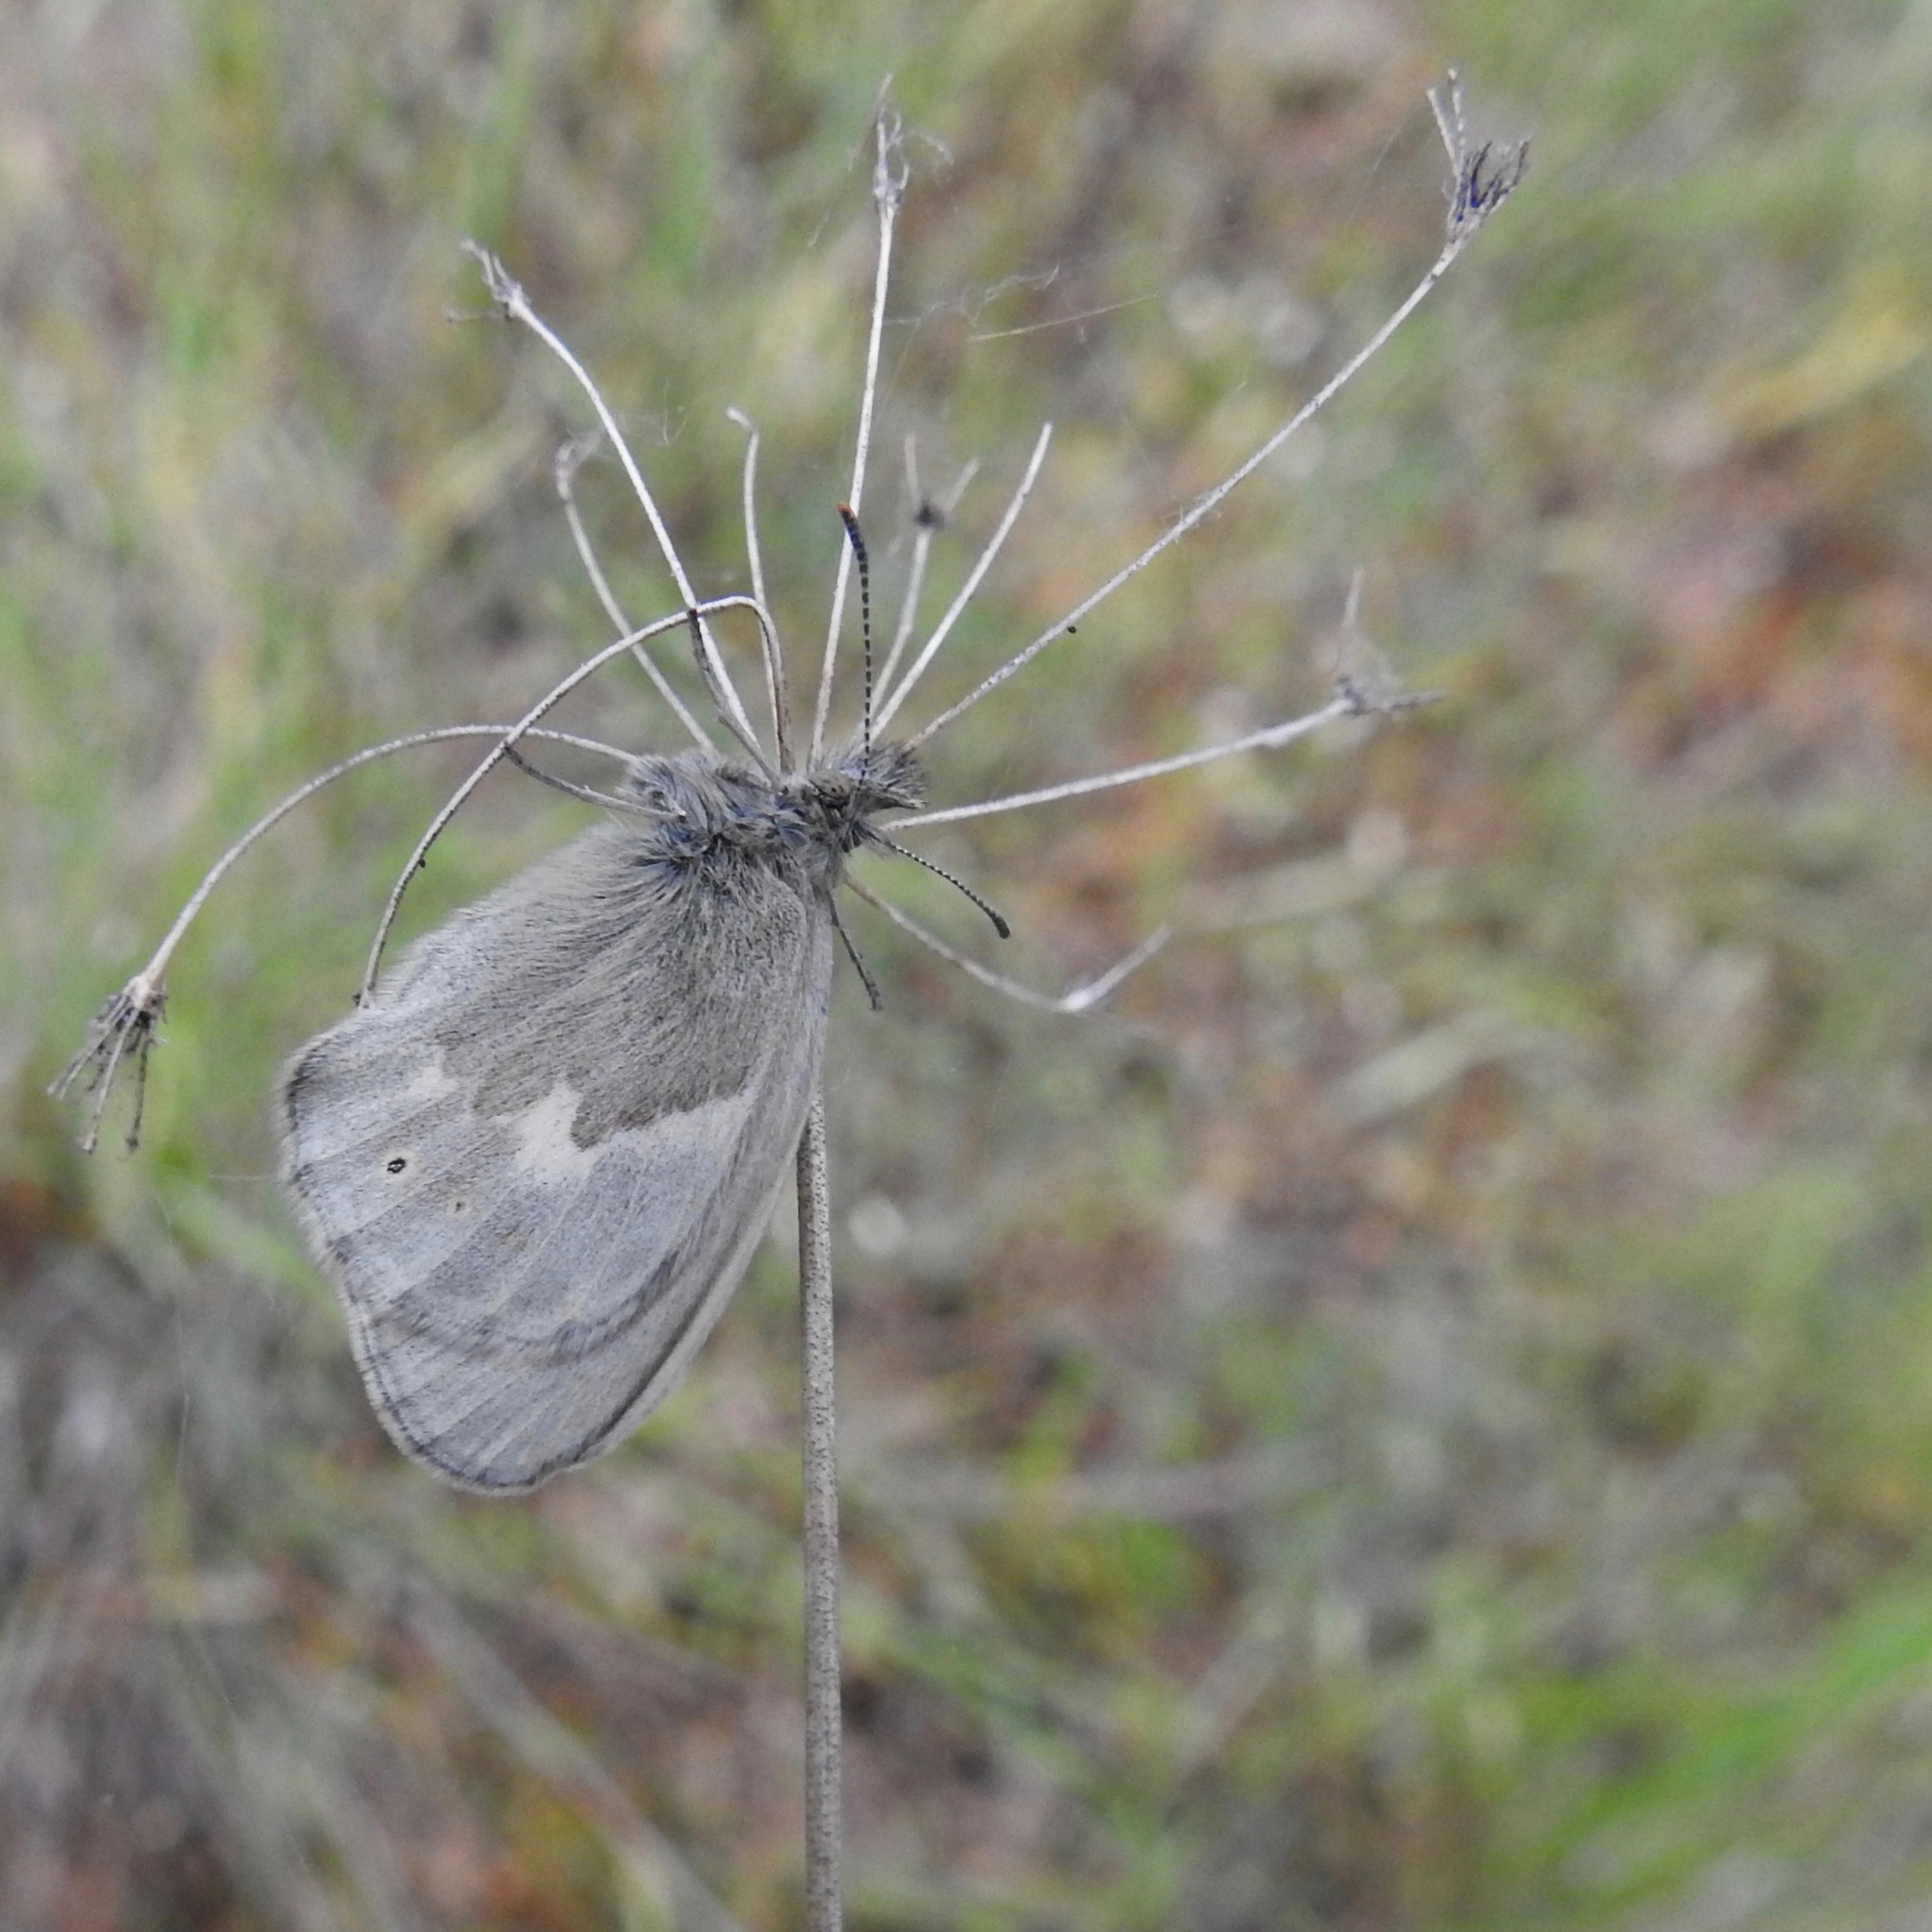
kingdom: Animalia
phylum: Arthropoda
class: Insecta
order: Lepidoptera
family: Nymphalidae
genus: Coenonympha
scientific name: Coenonympha california
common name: Common ringlet
